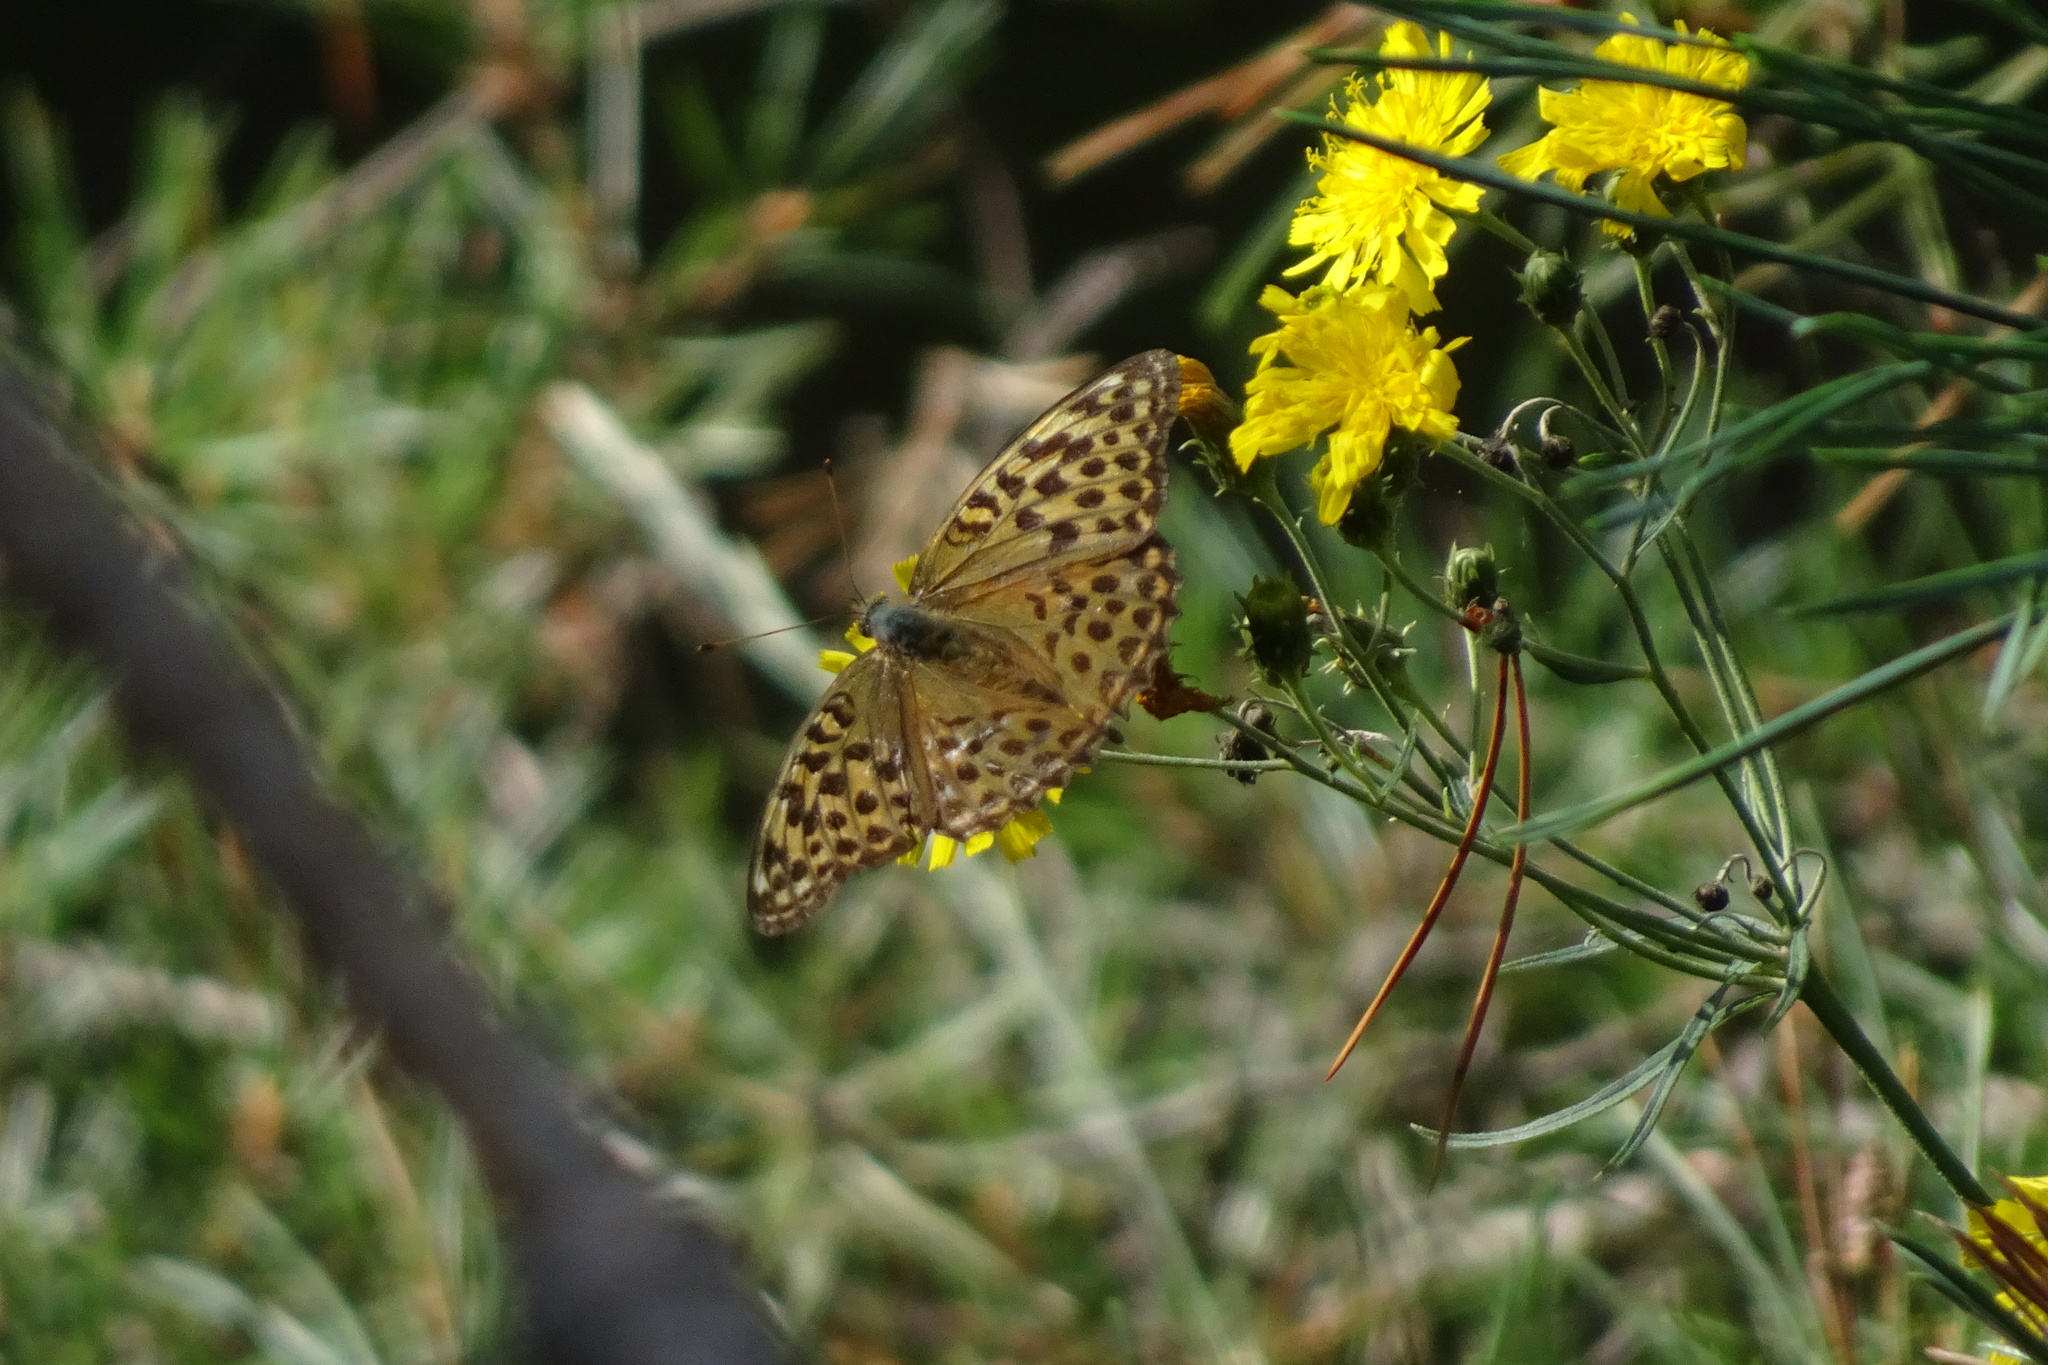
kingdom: Animalia
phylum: Arthropoda
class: Insecta
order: Lepidoptera
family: Nymphalidae
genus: Argynnis
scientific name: Argynnis paphia
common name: Silver-washed fritillary
